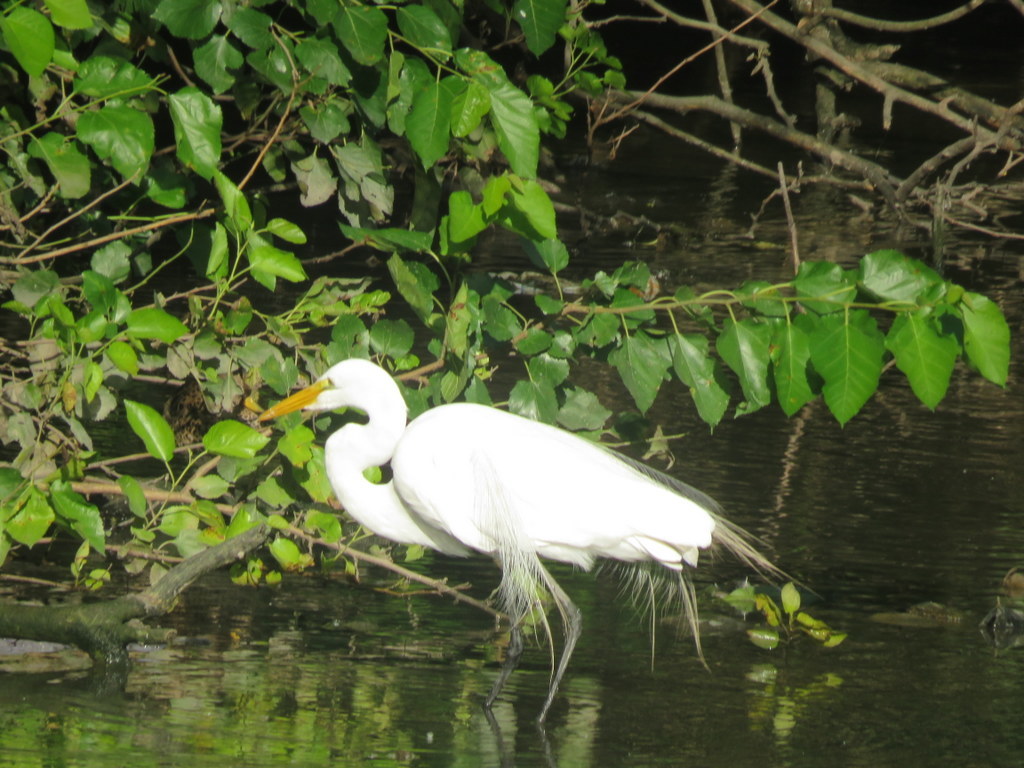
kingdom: Animalia
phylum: Chordata
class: Aves
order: Pelecaniformes
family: Ardeidae
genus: Ardea
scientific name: Ardea alba
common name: Great egret
